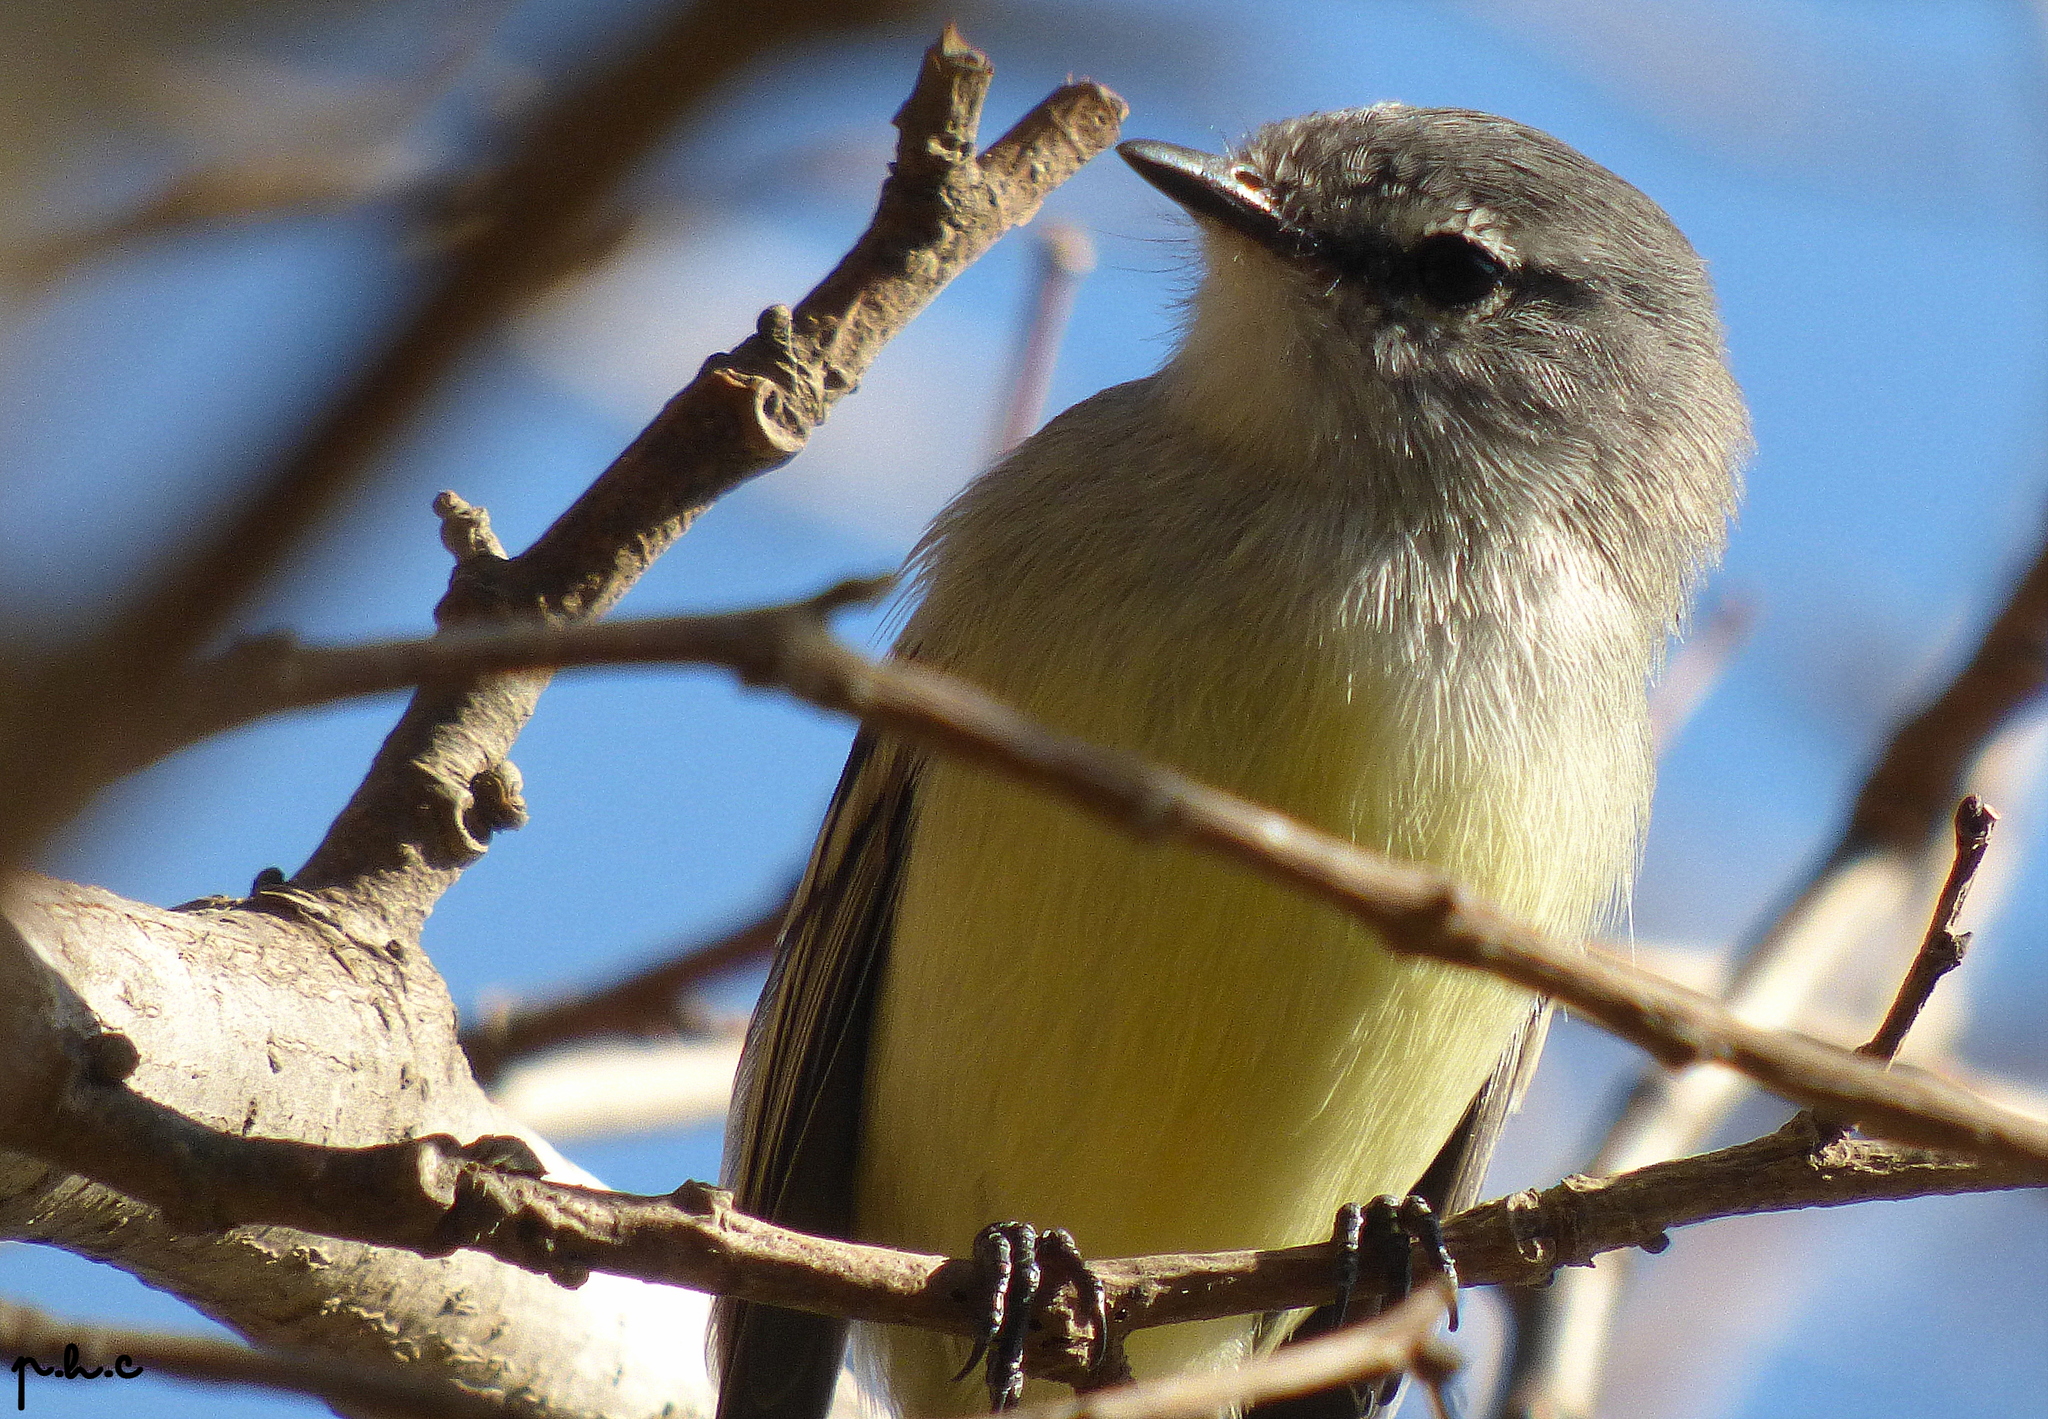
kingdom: Animalia
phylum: Chordata
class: Aves
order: Passeriformes
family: Tyrannidae
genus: Serpophaga
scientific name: Serpophaga subcristata
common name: White-crested tyrannulet
